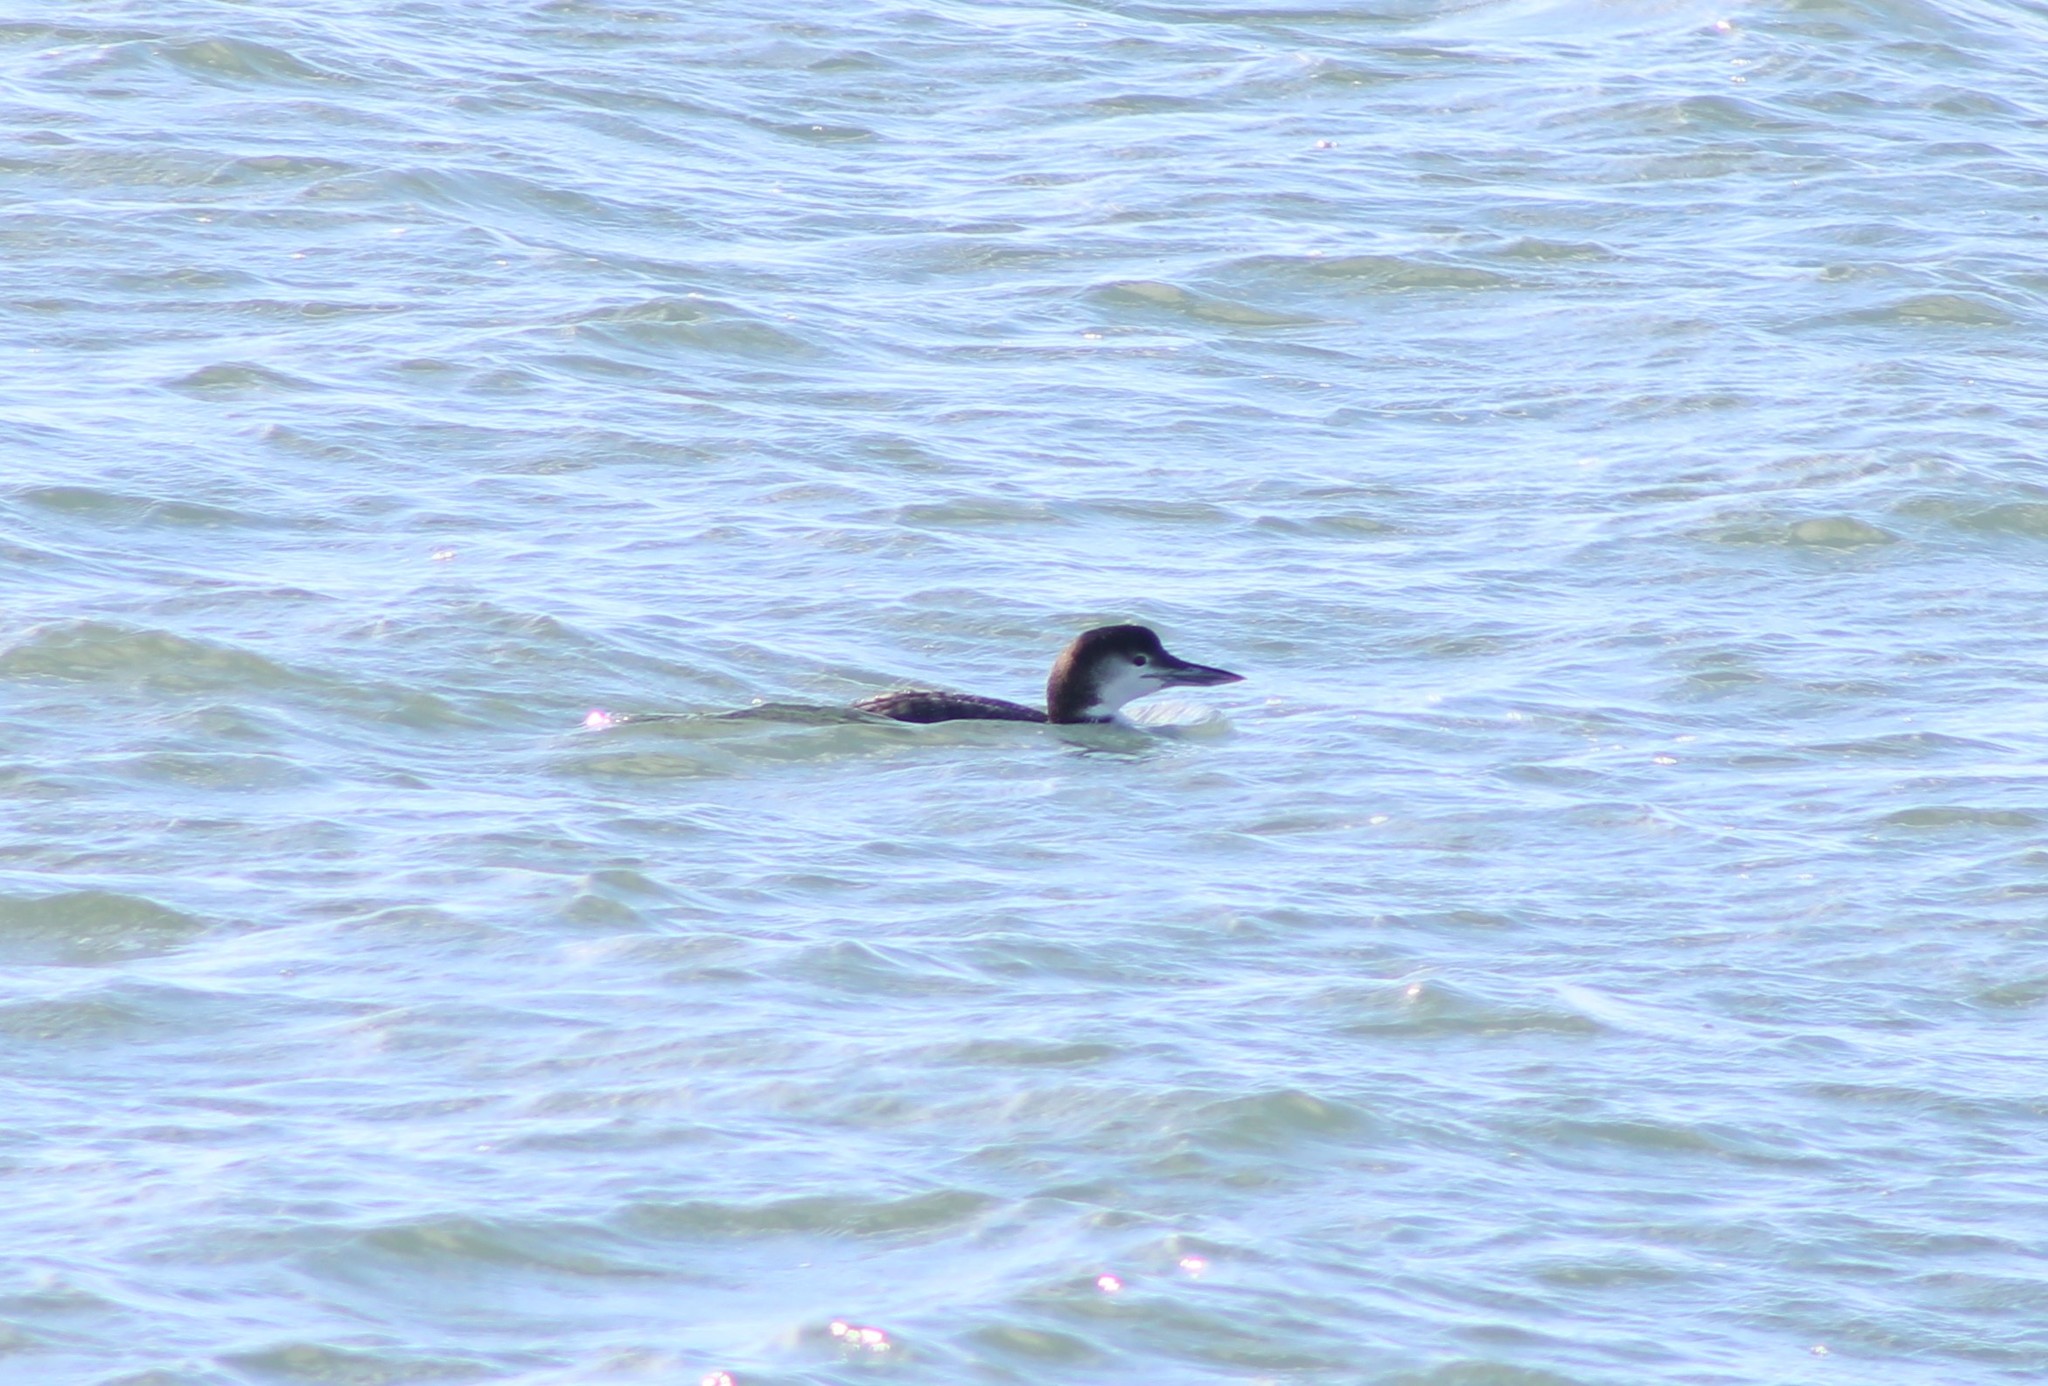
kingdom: Animalia
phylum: Chordata
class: Aves
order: Gaviiformes
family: Gaviidae
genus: Gavia
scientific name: Gavia immer
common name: Common loon
